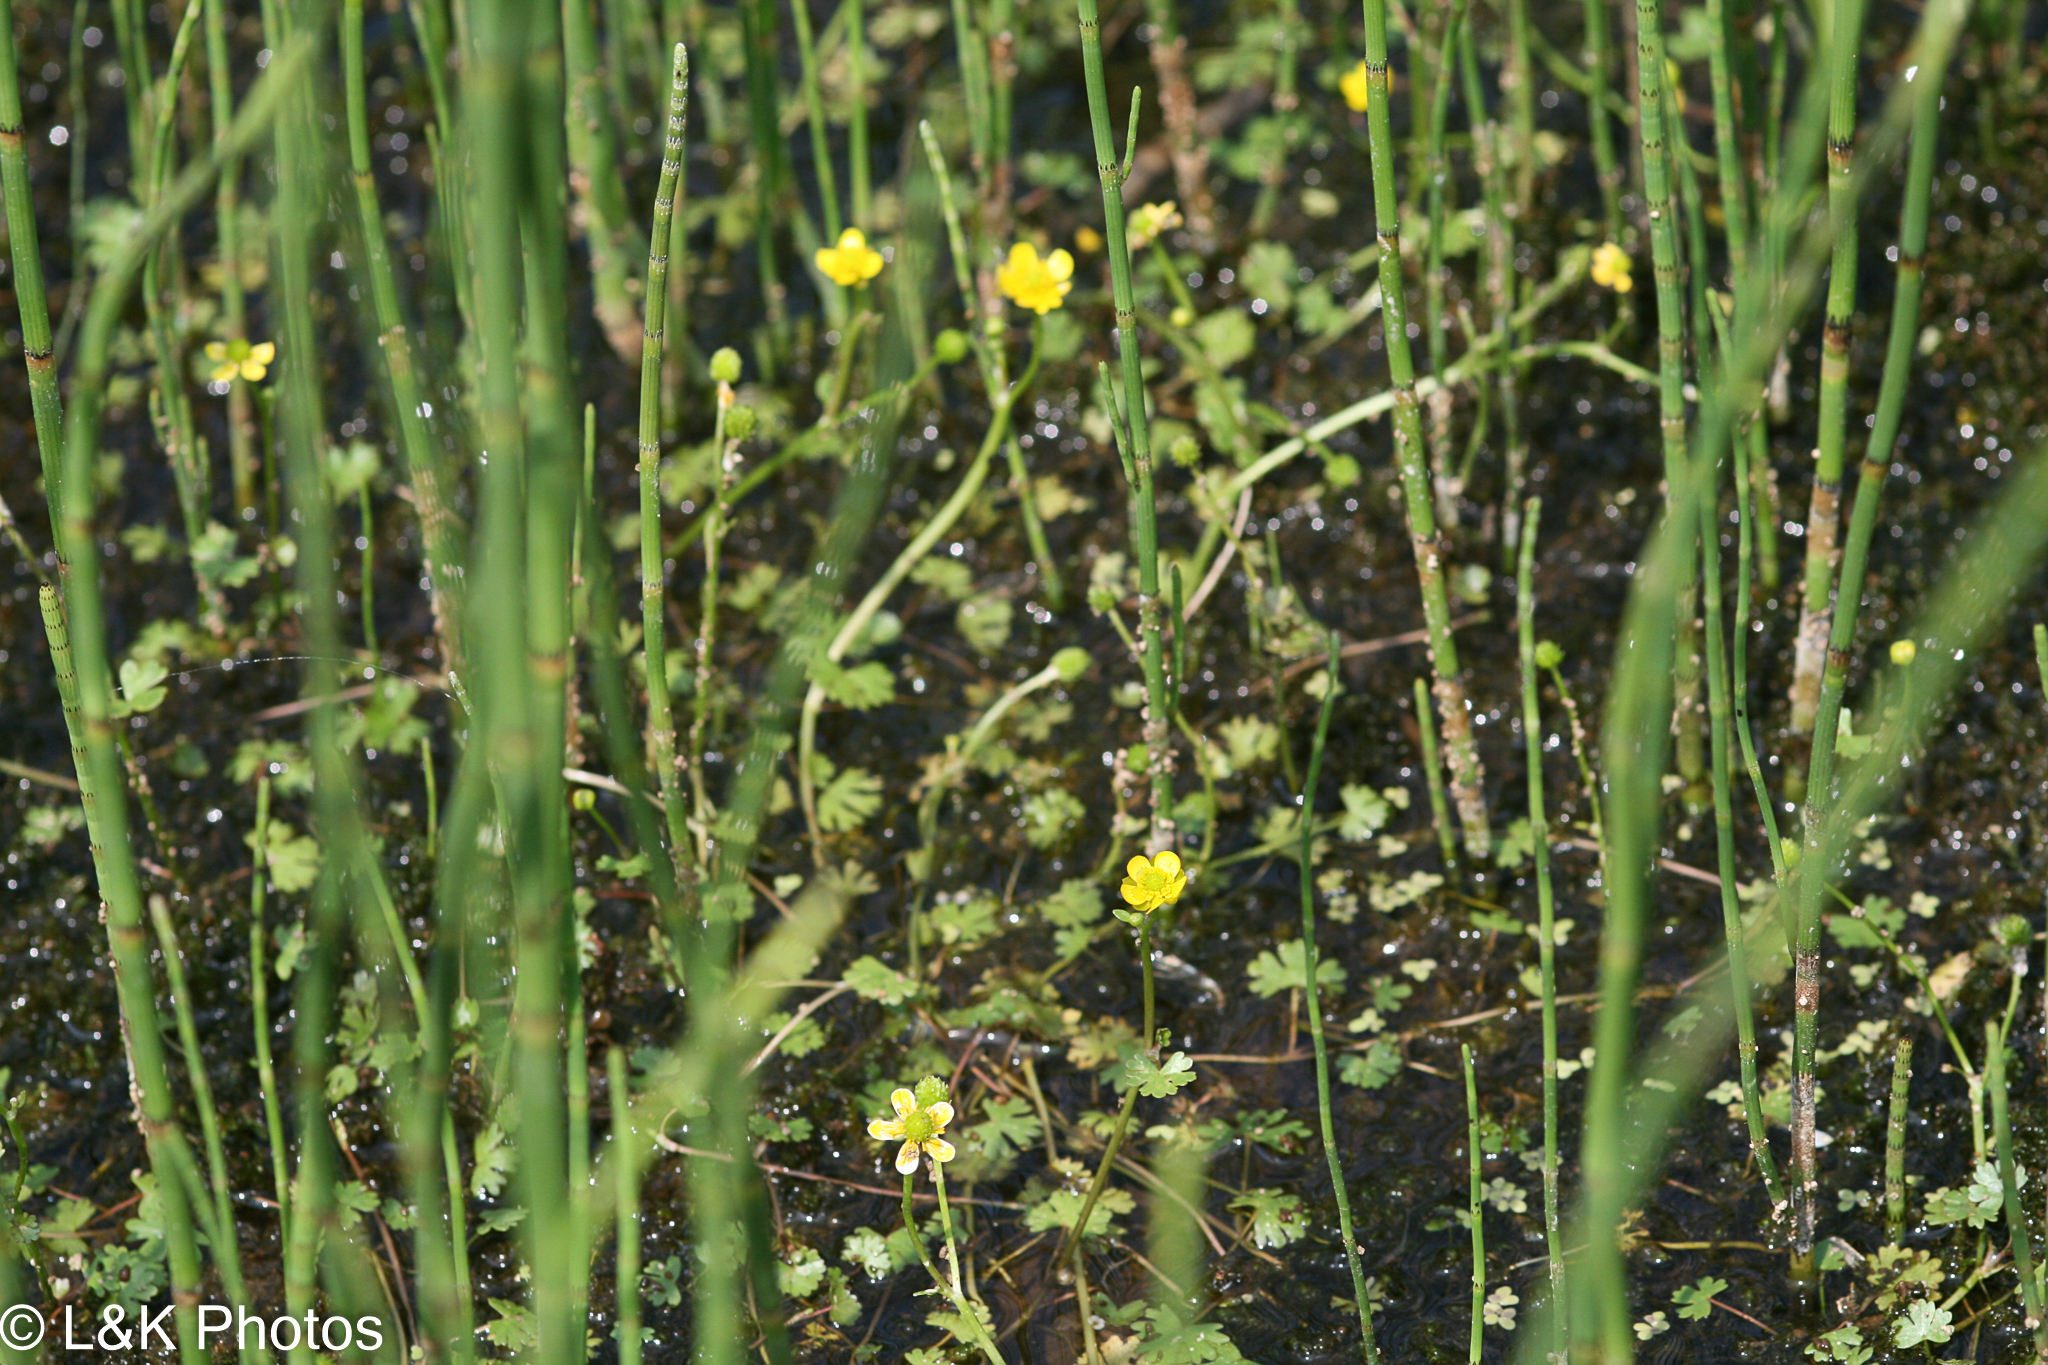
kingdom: Plantae
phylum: Tracheophyta
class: Magnoliopsida
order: Ranunculales
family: Ranunculaceae
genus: Ranunculus
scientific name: Ranunculus gmelinii
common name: Gmelin's buttercup
